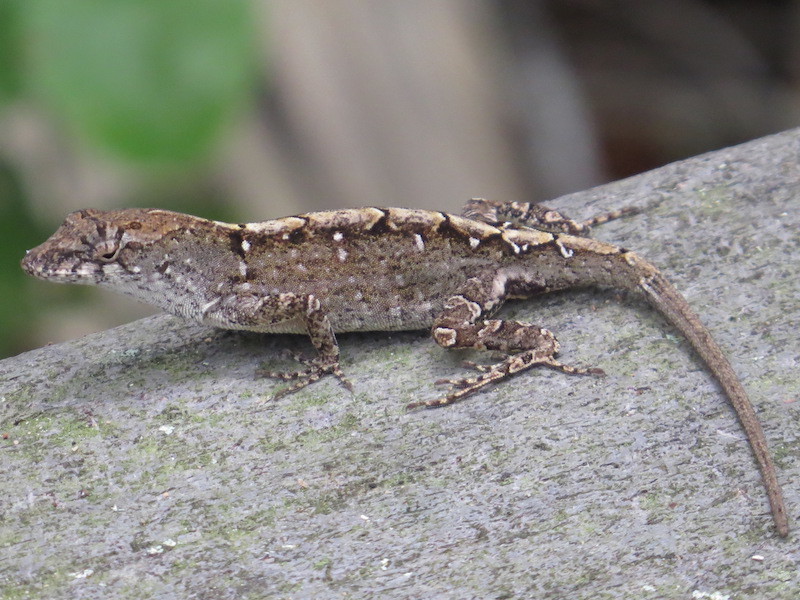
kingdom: Animalia
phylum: Chordata
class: Squamata
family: Dactyloidae
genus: Anolis
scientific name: Anolis sagrei
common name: Brown anole
